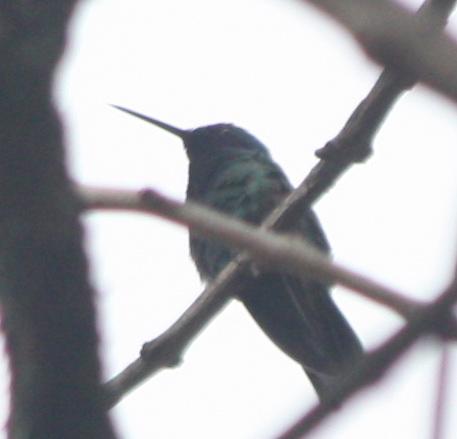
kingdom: Animalia
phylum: Chordata
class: Aves
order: Apodiformes
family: Trochilidae
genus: Colibri
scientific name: Colibri coruscans
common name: Sparkling violetear
